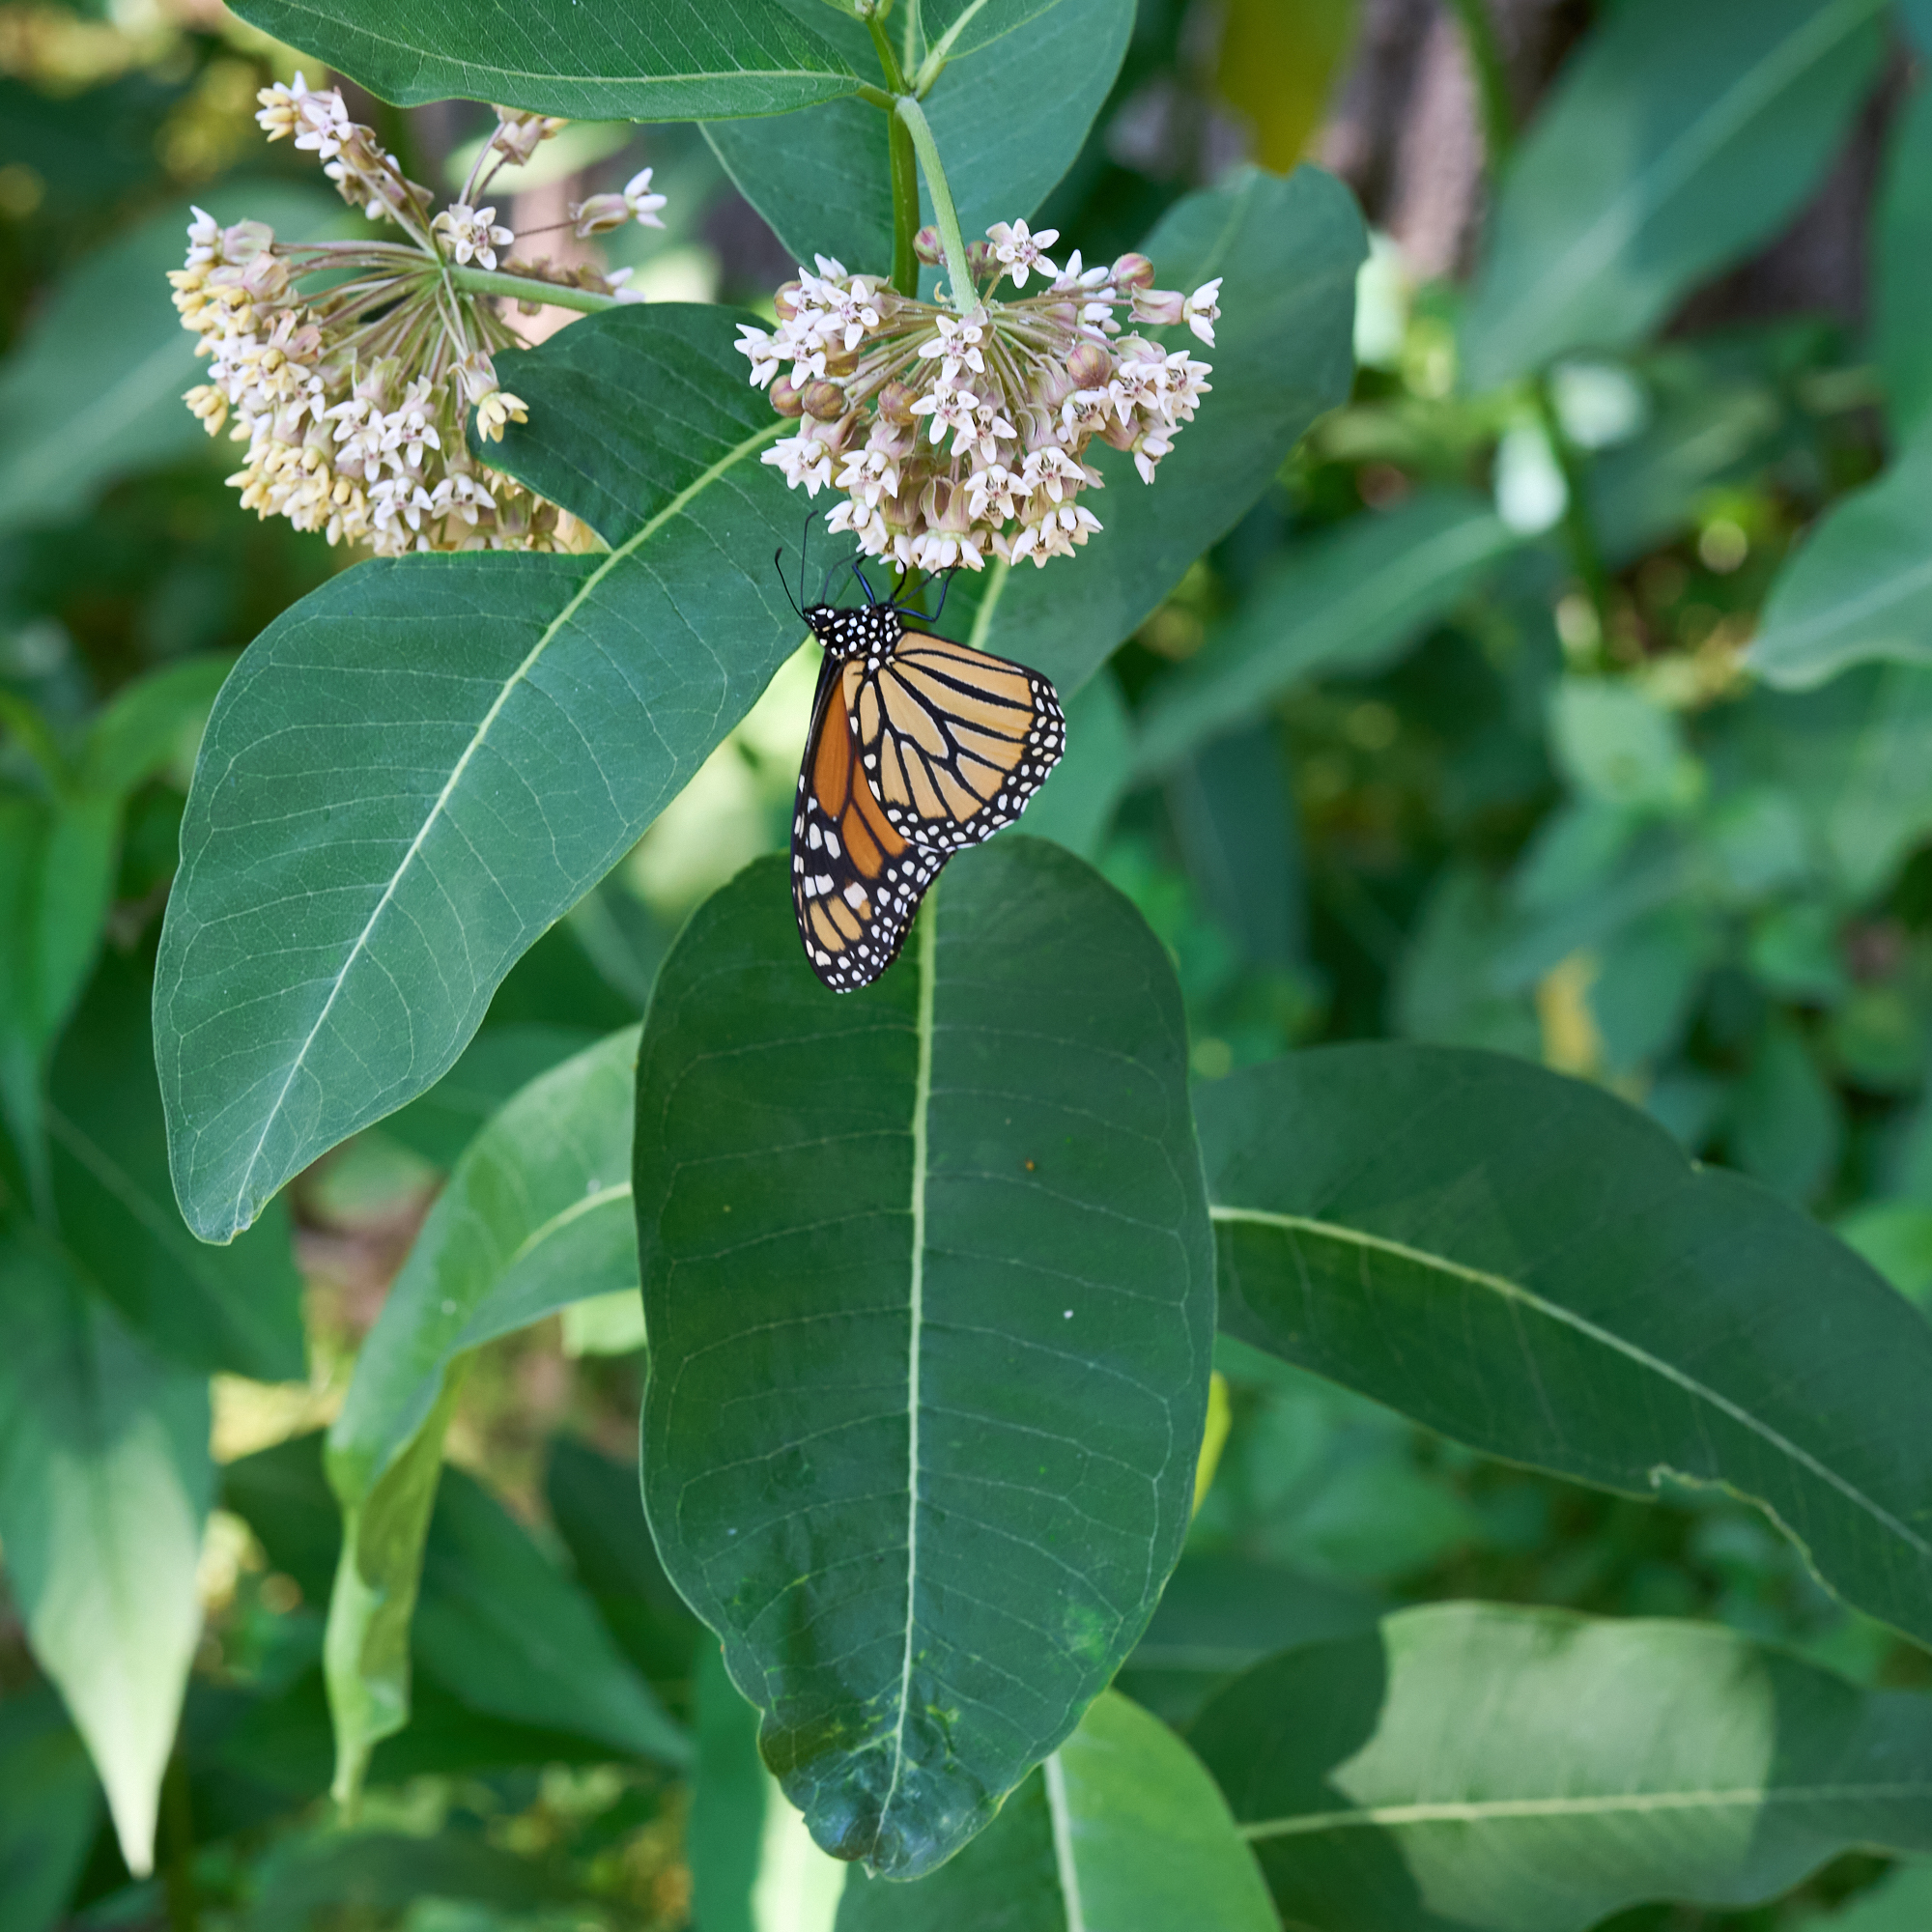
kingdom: Animalia
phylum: Arthropoda
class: Insecta
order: Lepidoptera
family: Nymphalidae
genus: Danaus
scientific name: Danaus plexippus
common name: Monarch
